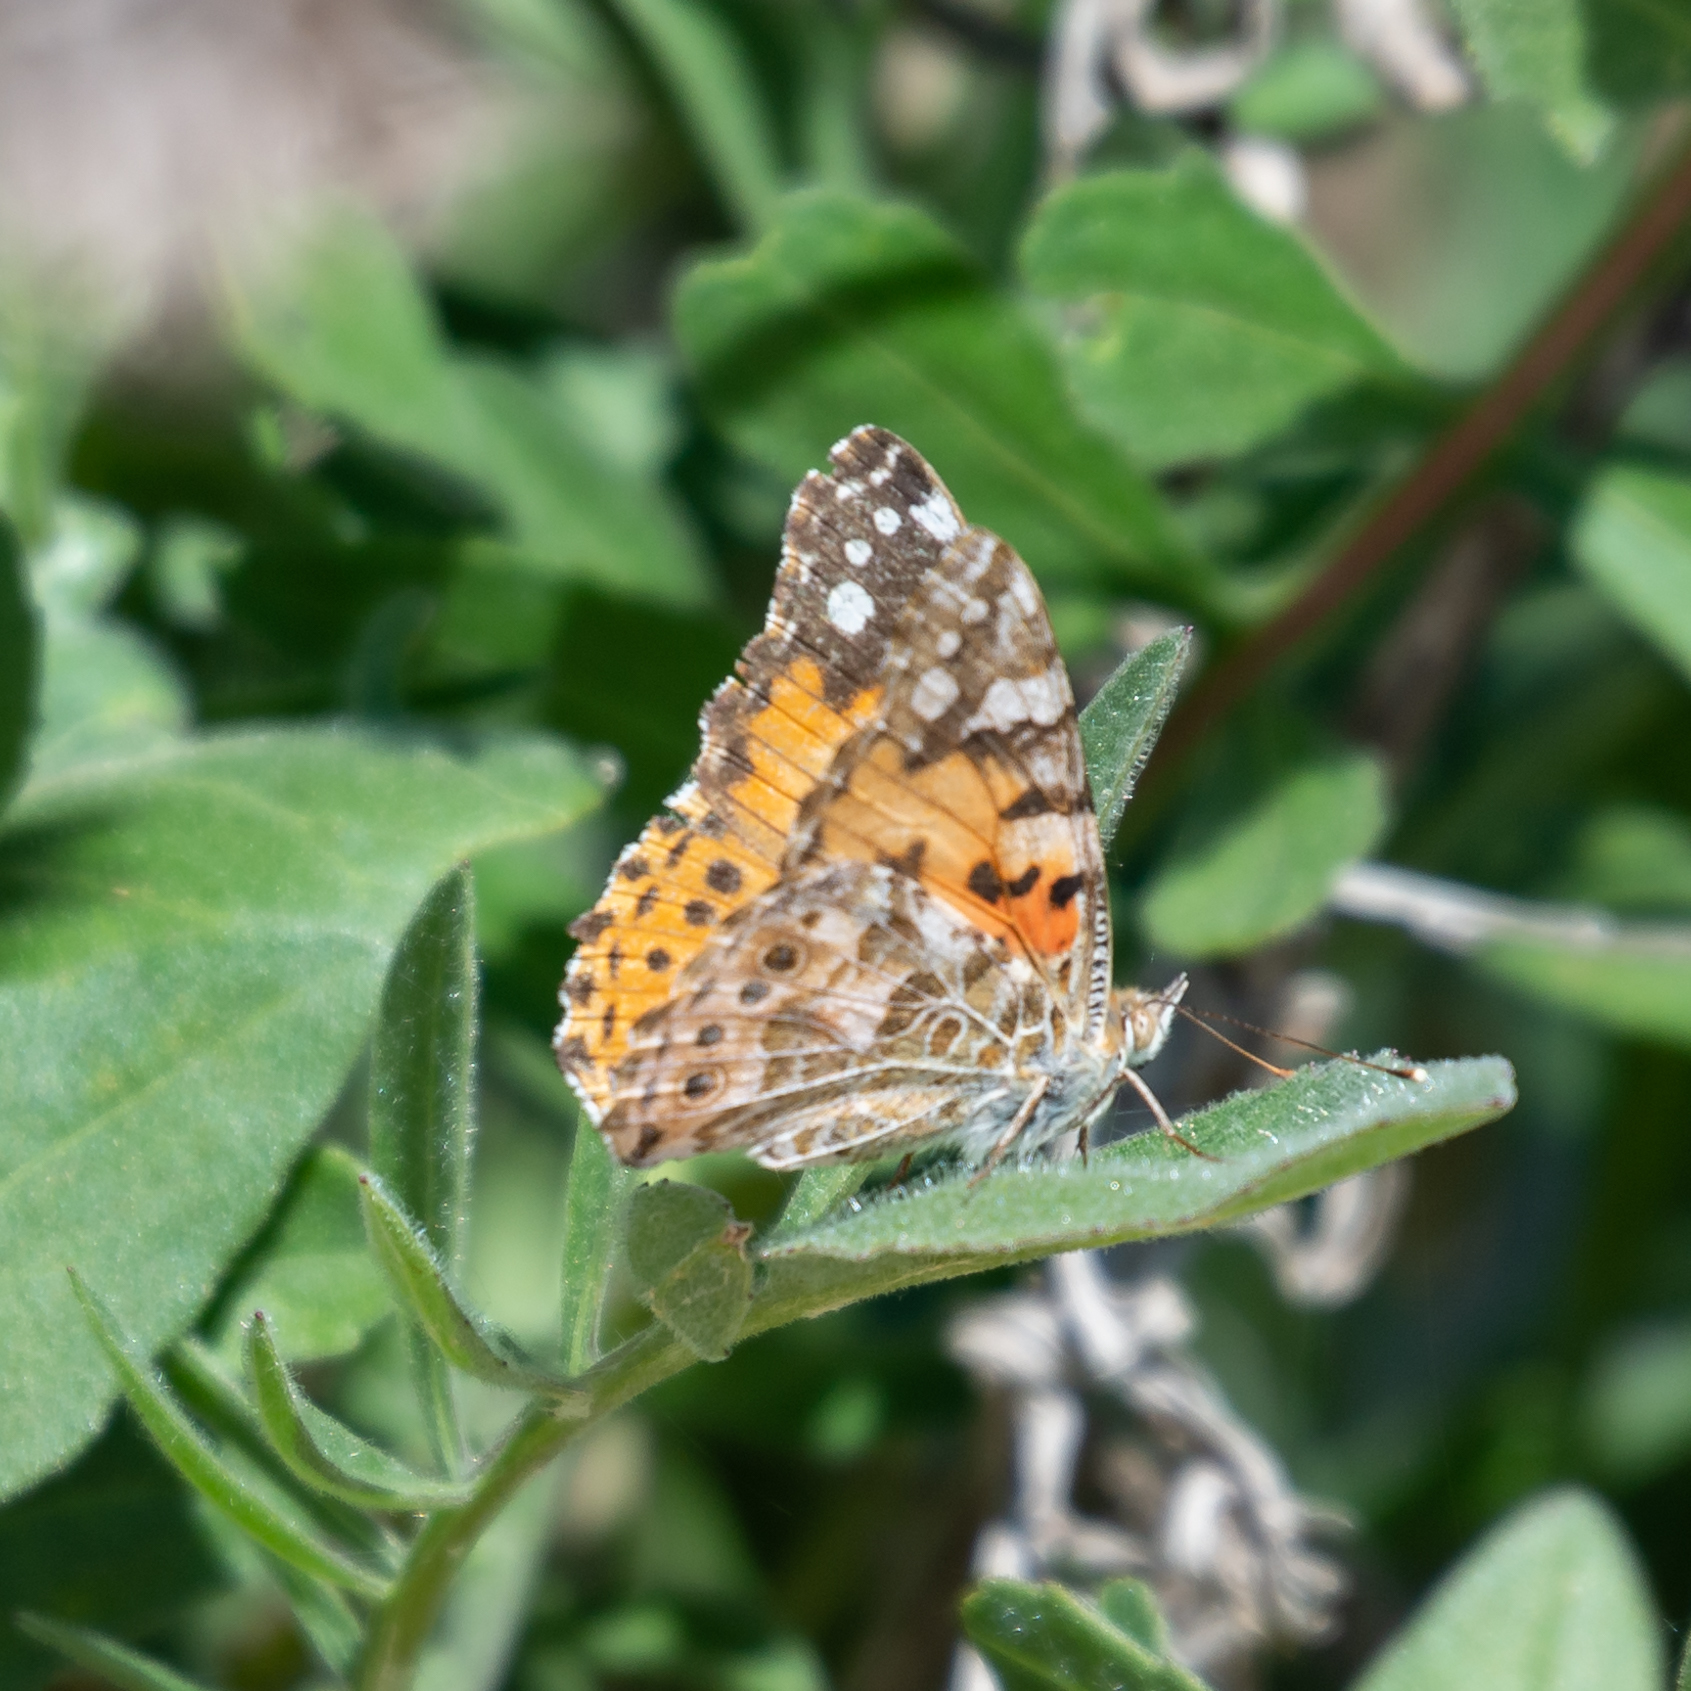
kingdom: Animalia
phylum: Arthropoda
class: Insecta
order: Lepidoptera
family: Nymphalidae
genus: Vanessa
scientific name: Vanessa cardui
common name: Painted lady
